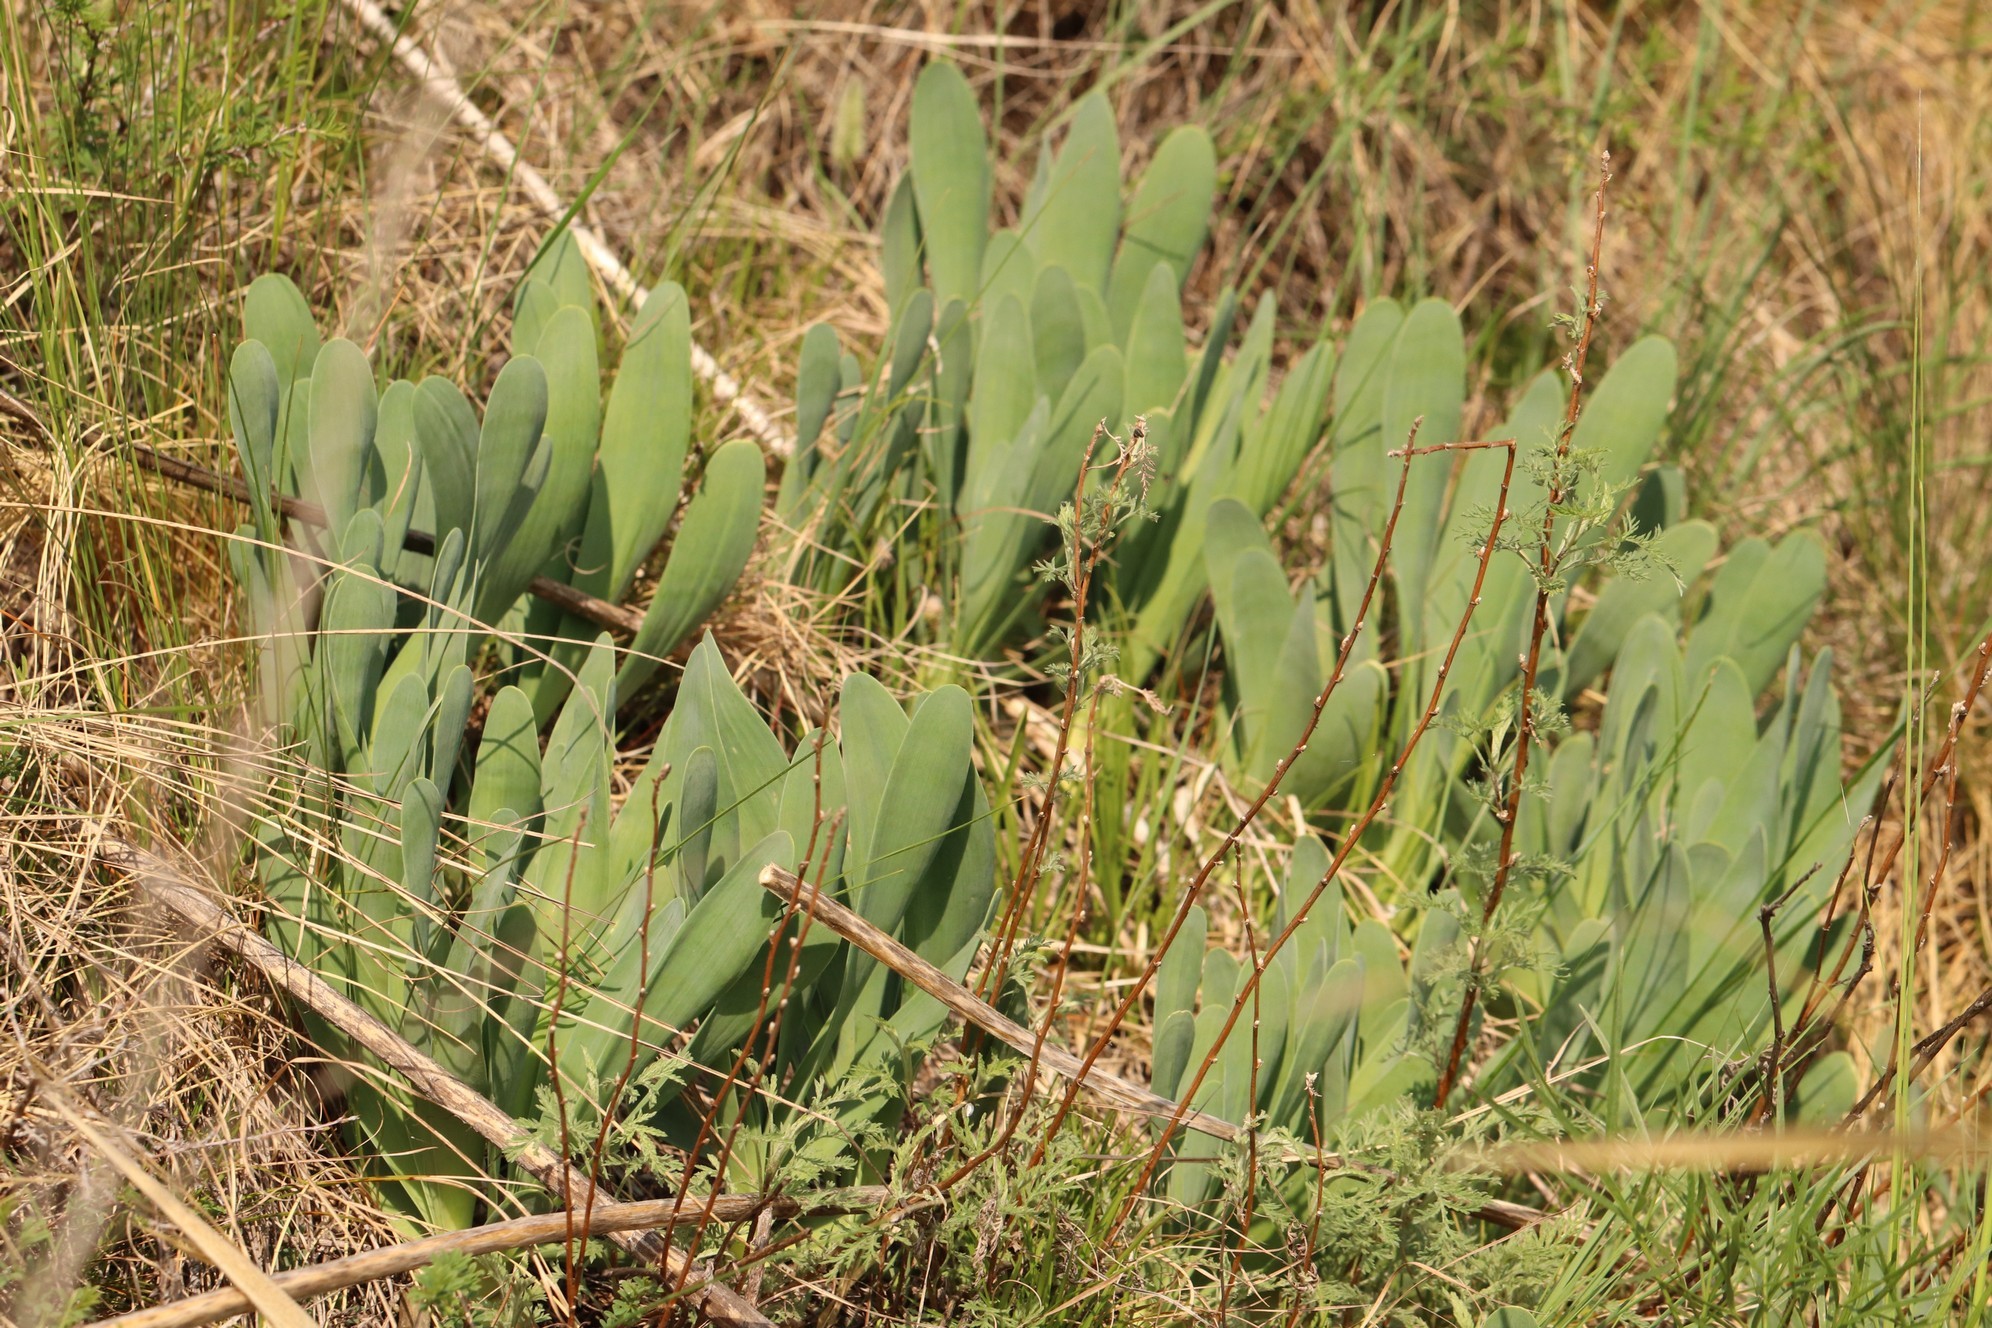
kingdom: Plantae
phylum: Tracheophyta
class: Liliopsida
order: Asparagales
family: Amaryllidaceae
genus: Allium
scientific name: Allium nutans
